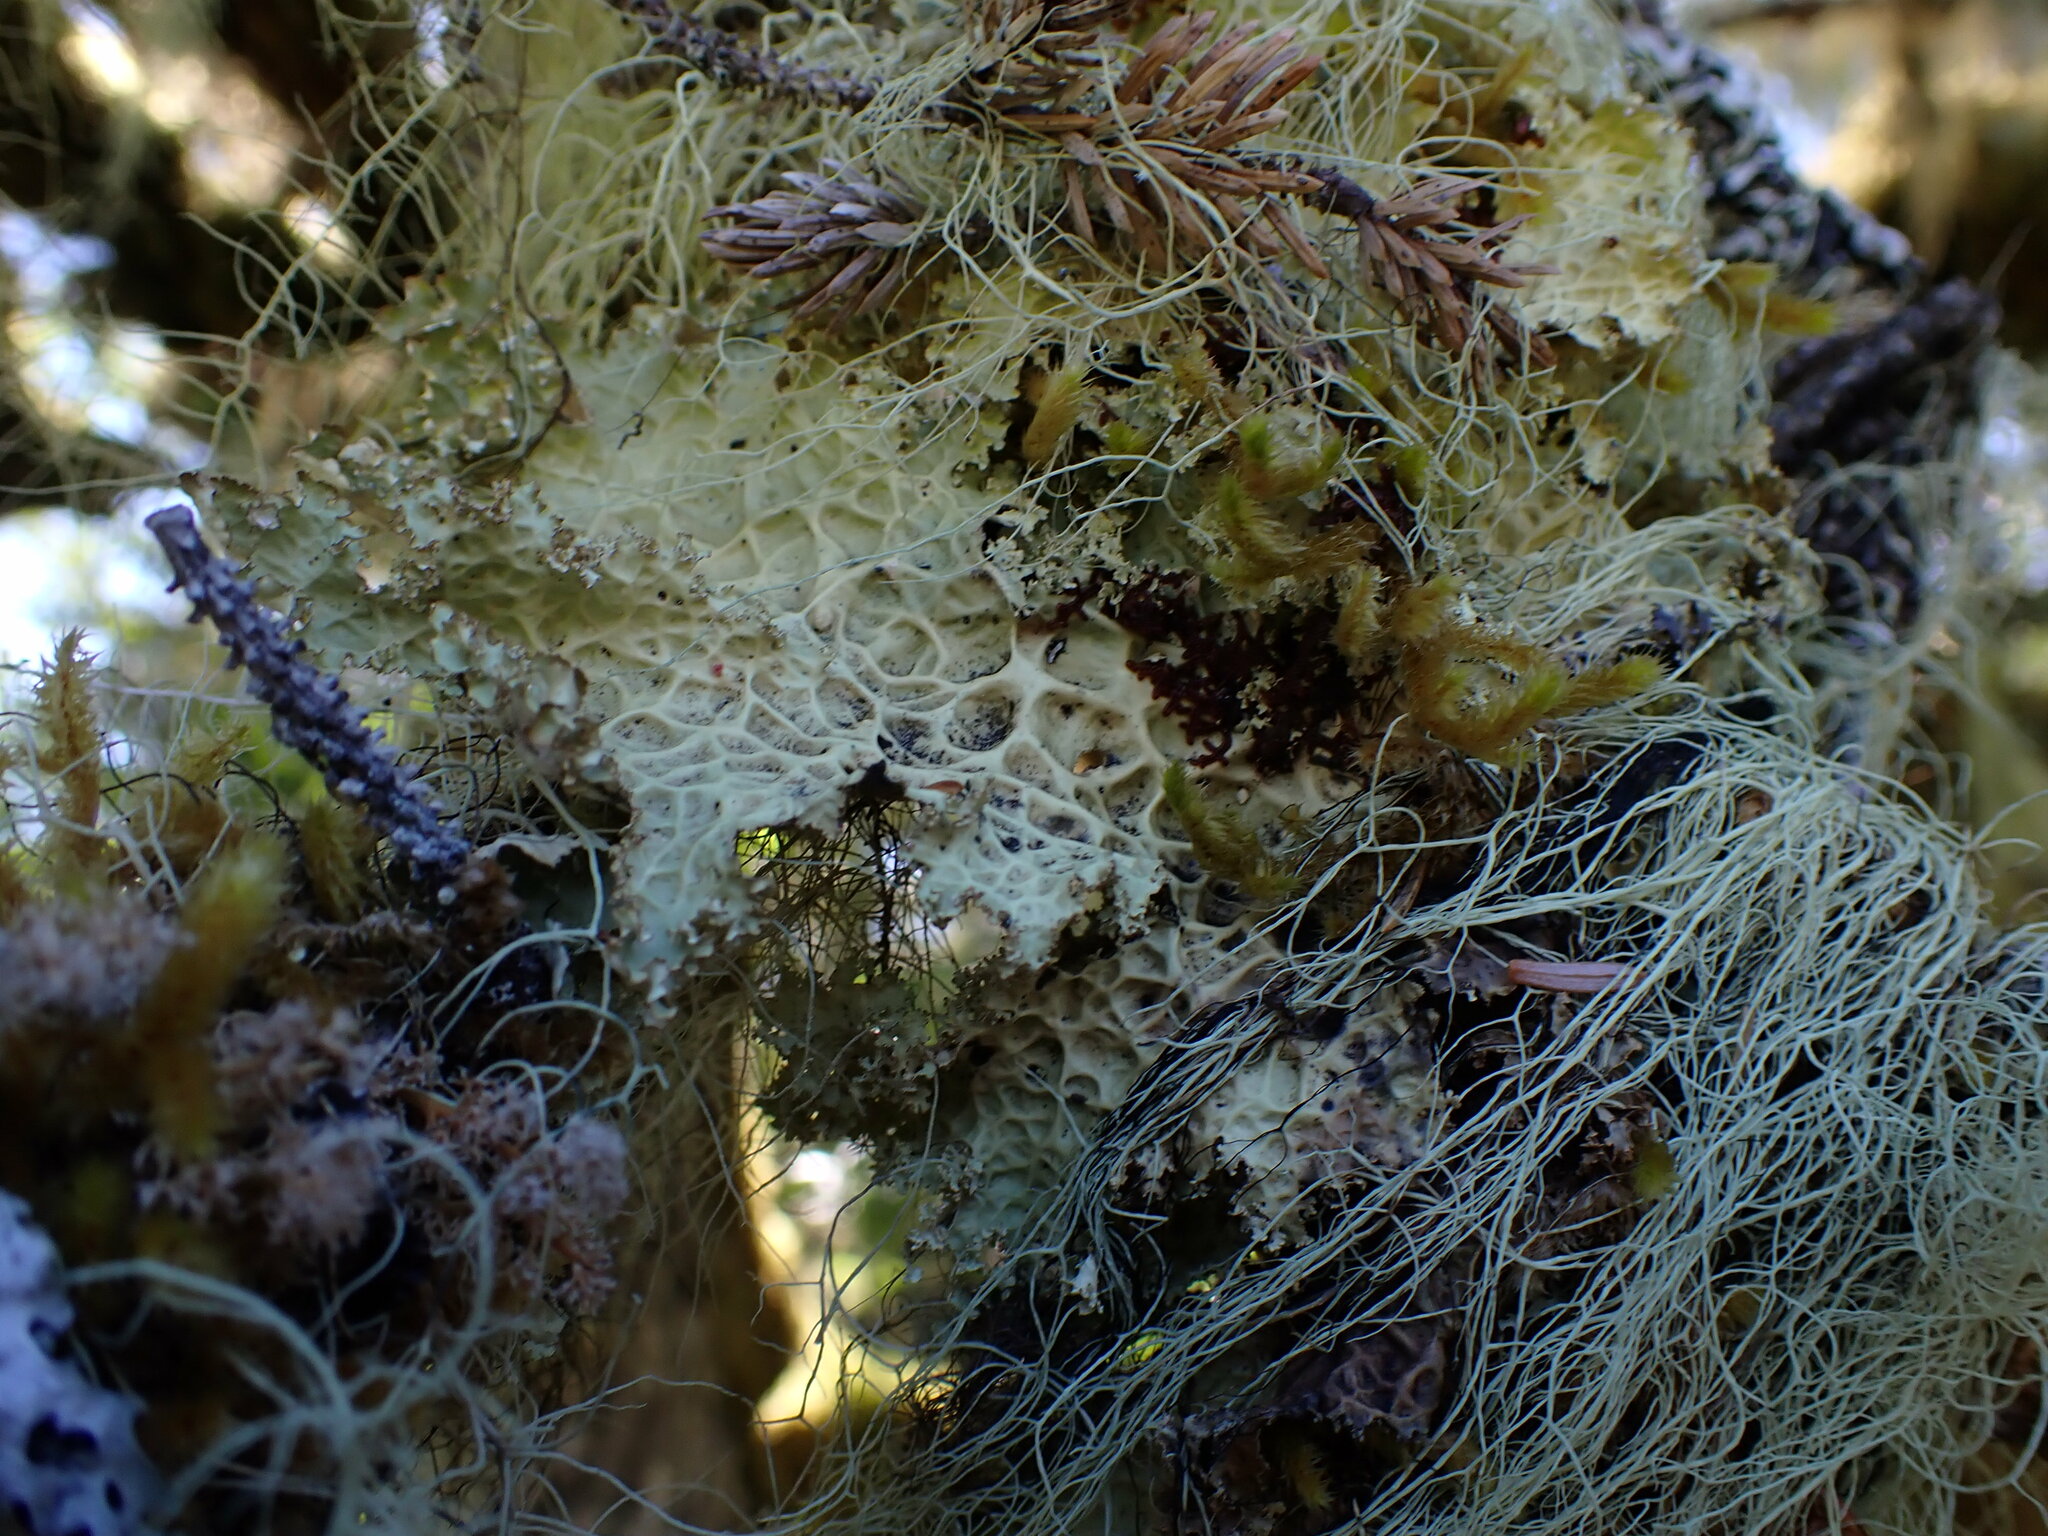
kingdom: Plantae
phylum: Marchantiophyta
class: Jungermanniopsida
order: Porellales
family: Frullaniaceae
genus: Frullania
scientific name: Frullania nisquallensis
